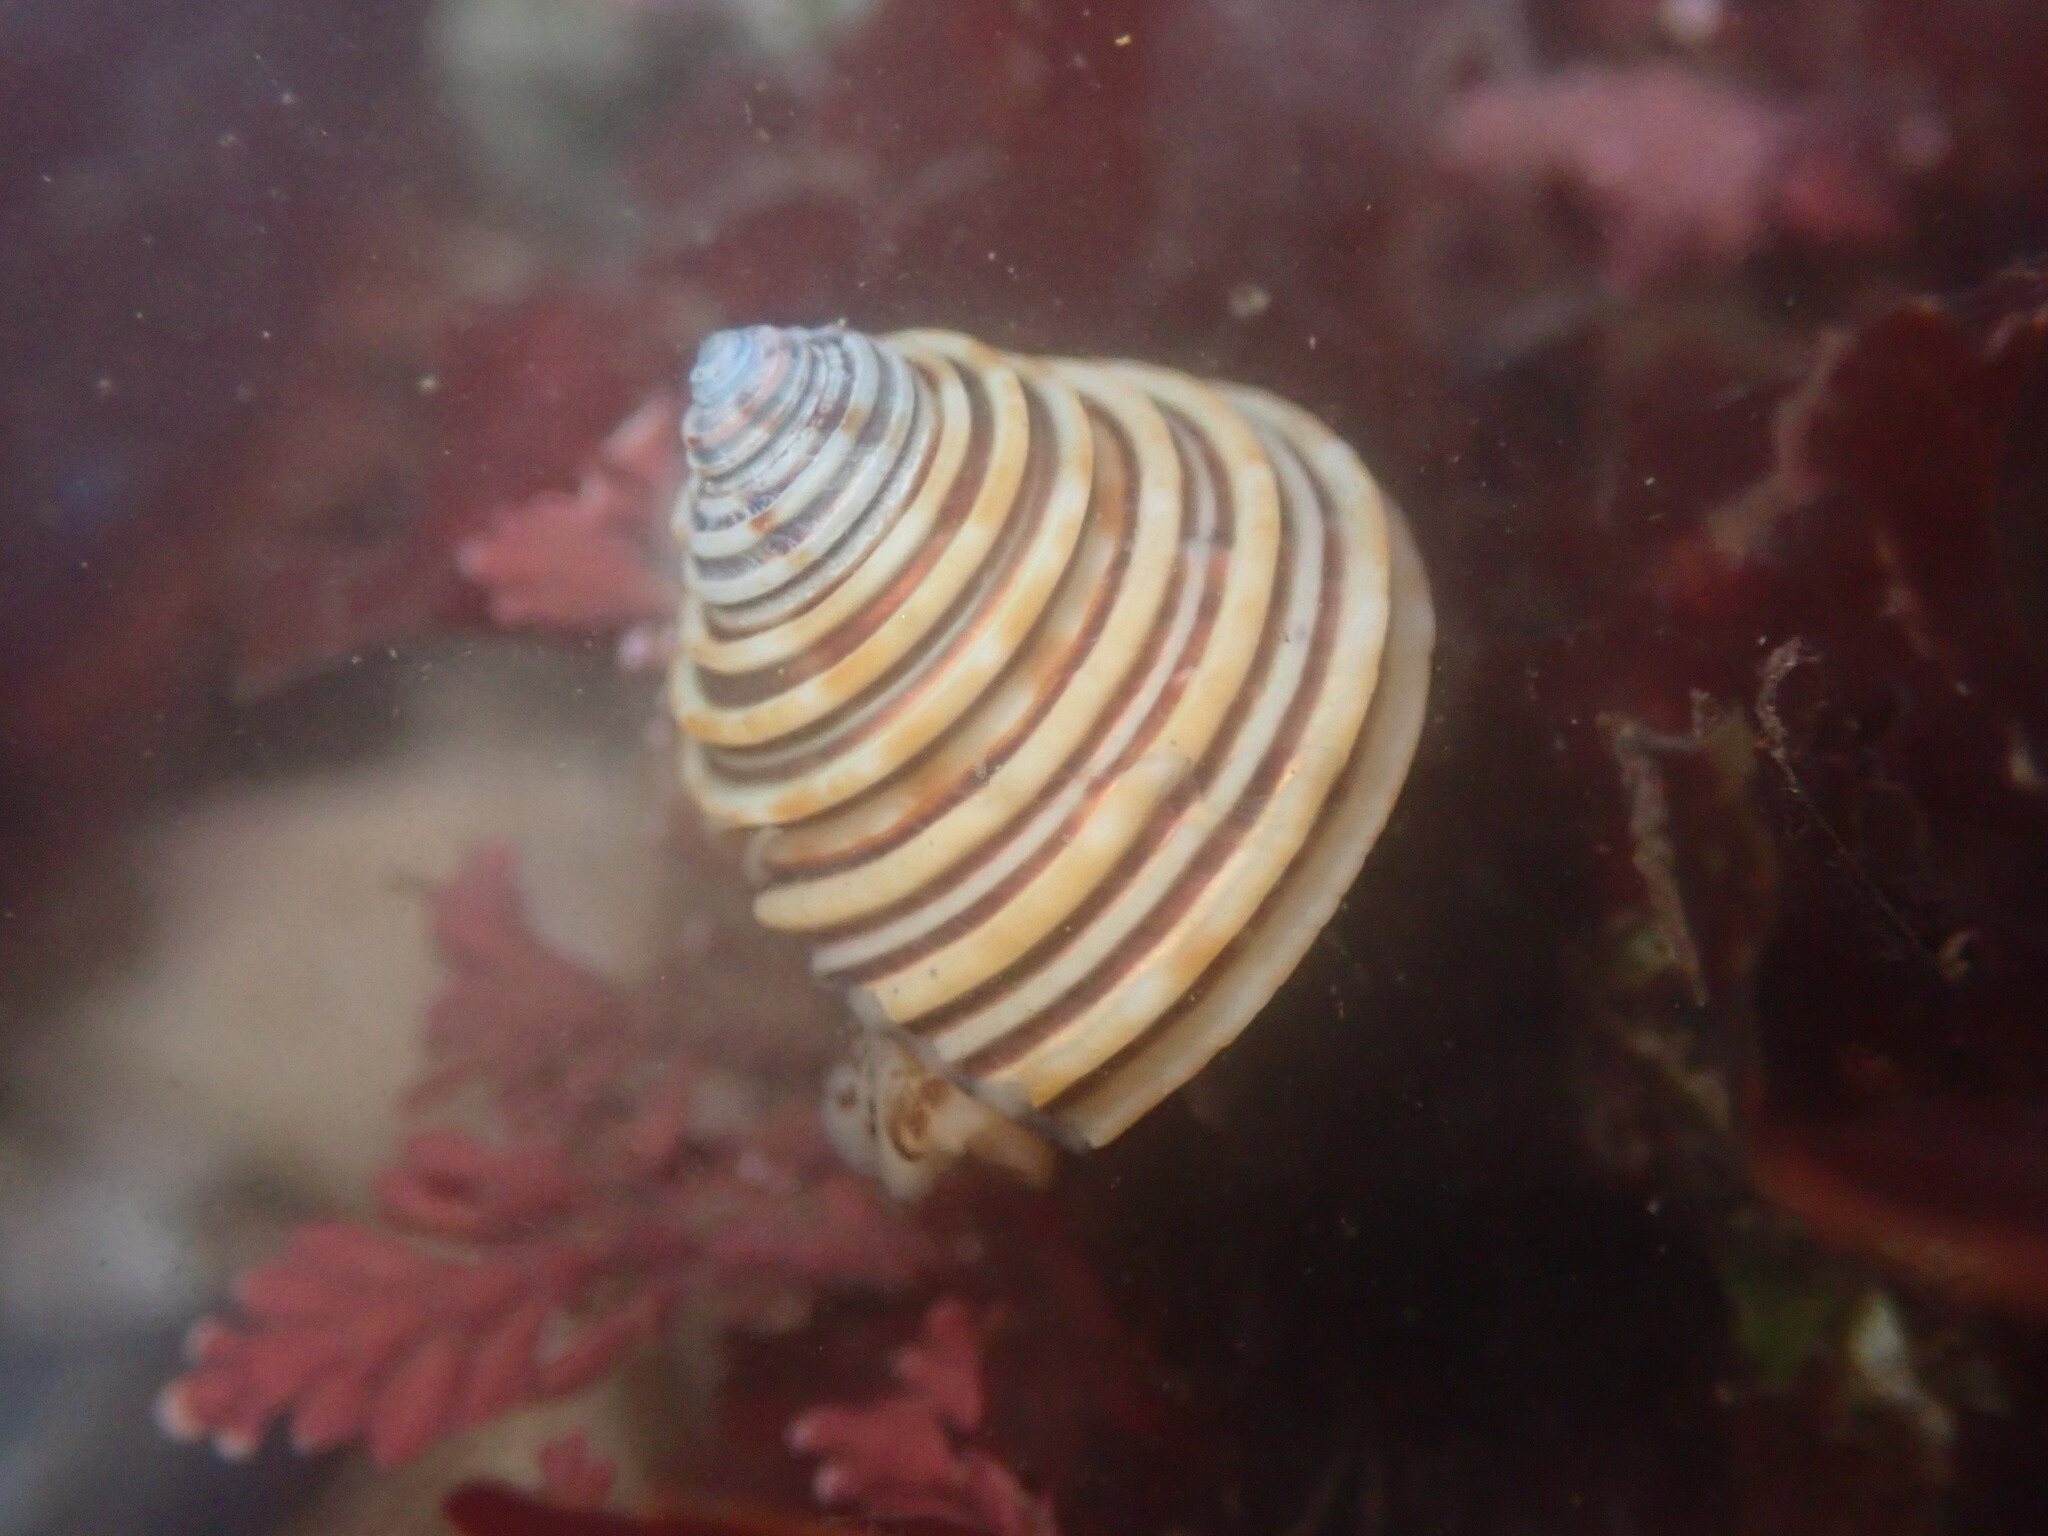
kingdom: Animalia
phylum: Mollusca
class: Gastropoda
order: Trochida
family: Calliostomatidae
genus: Calliostoma
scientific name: Calliostoma canaliculatum
